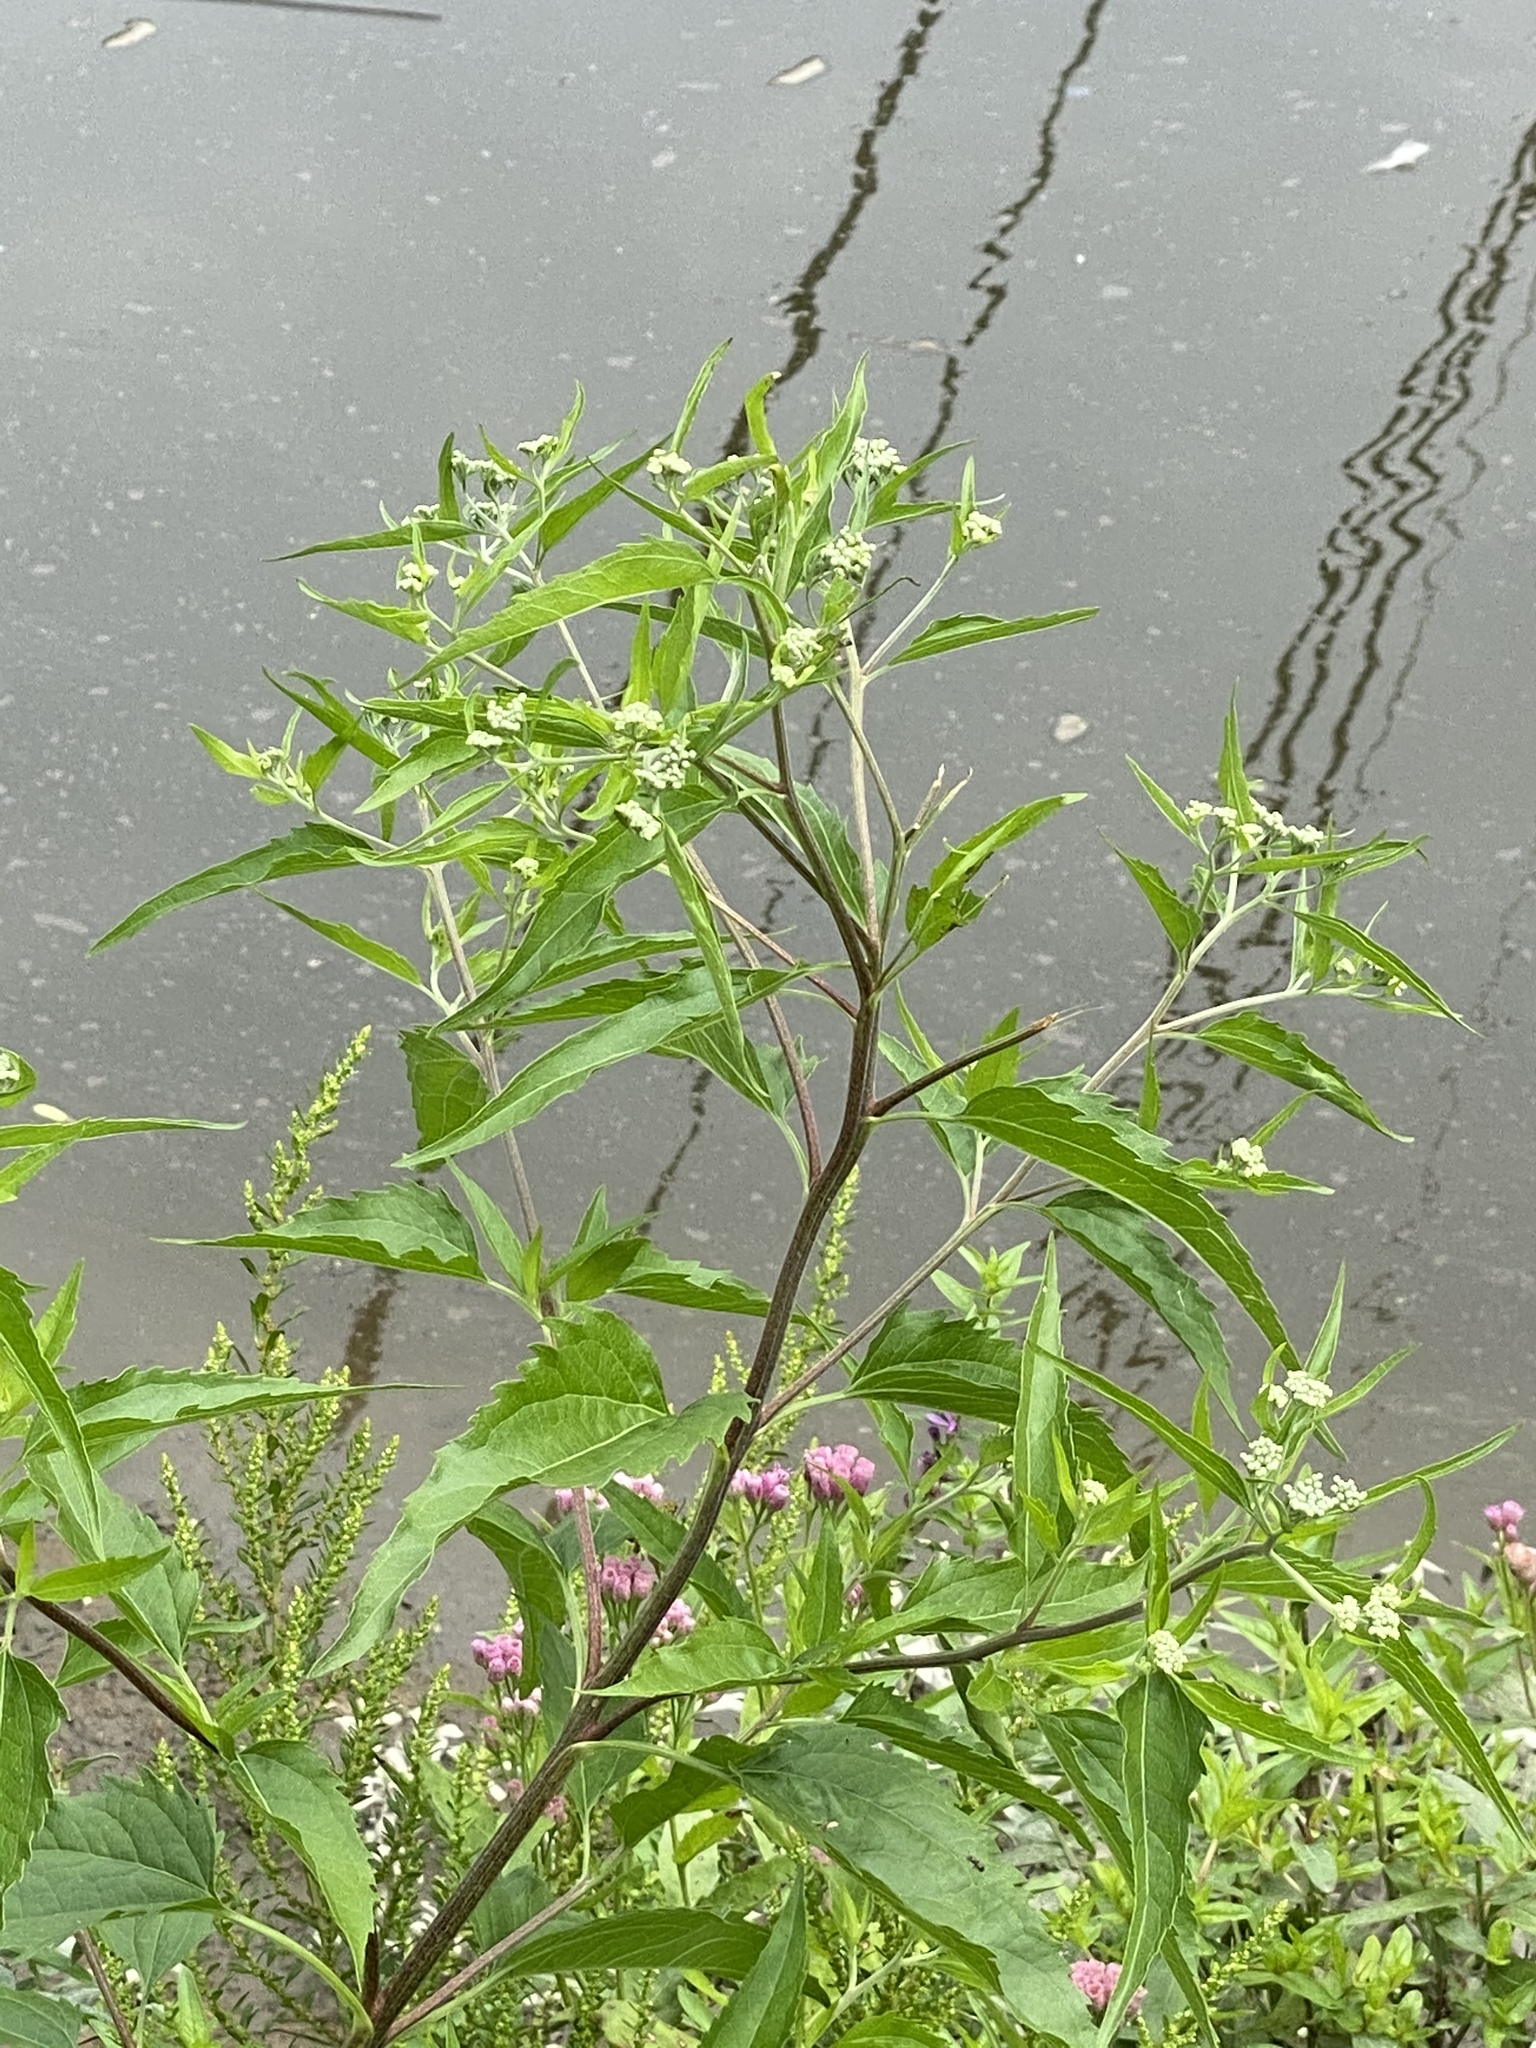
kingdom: Plantae
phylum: Tracheophyta
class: Magnoliopsida
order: Asterales
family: Asteraceae
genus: Eupatorium
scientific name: Eupatorium serotinum
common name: Late boneset
